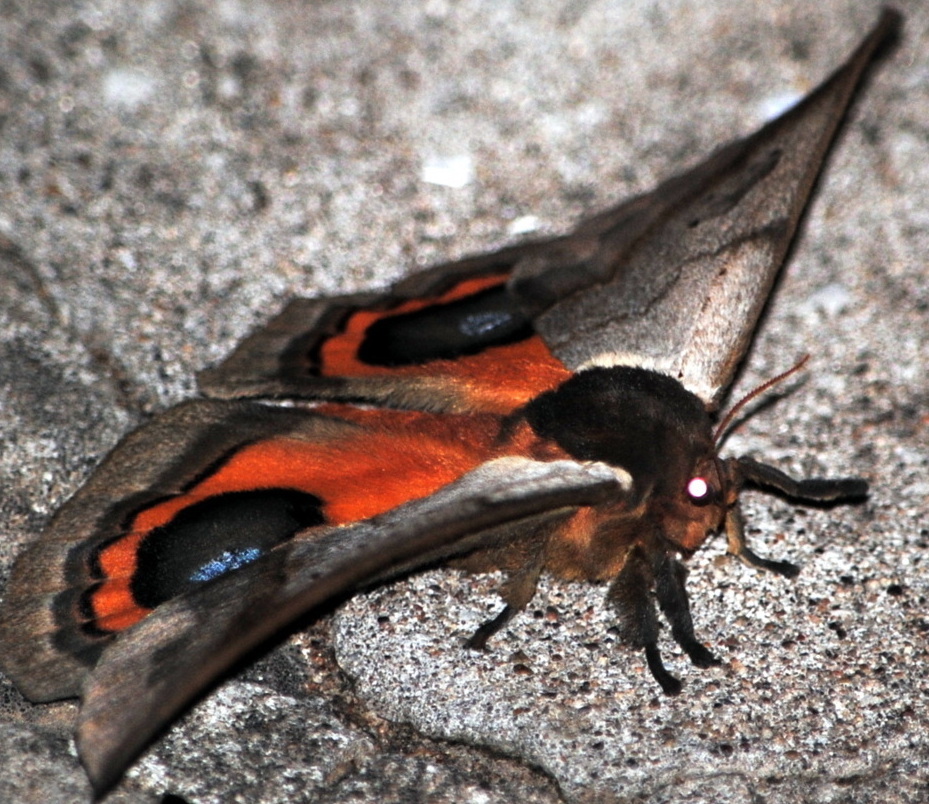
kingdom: Animalia
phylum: Arthropoda
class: Insecta
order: Lepidoptera
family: Saturniidae
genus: Automeris
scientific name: Automeris coresus
